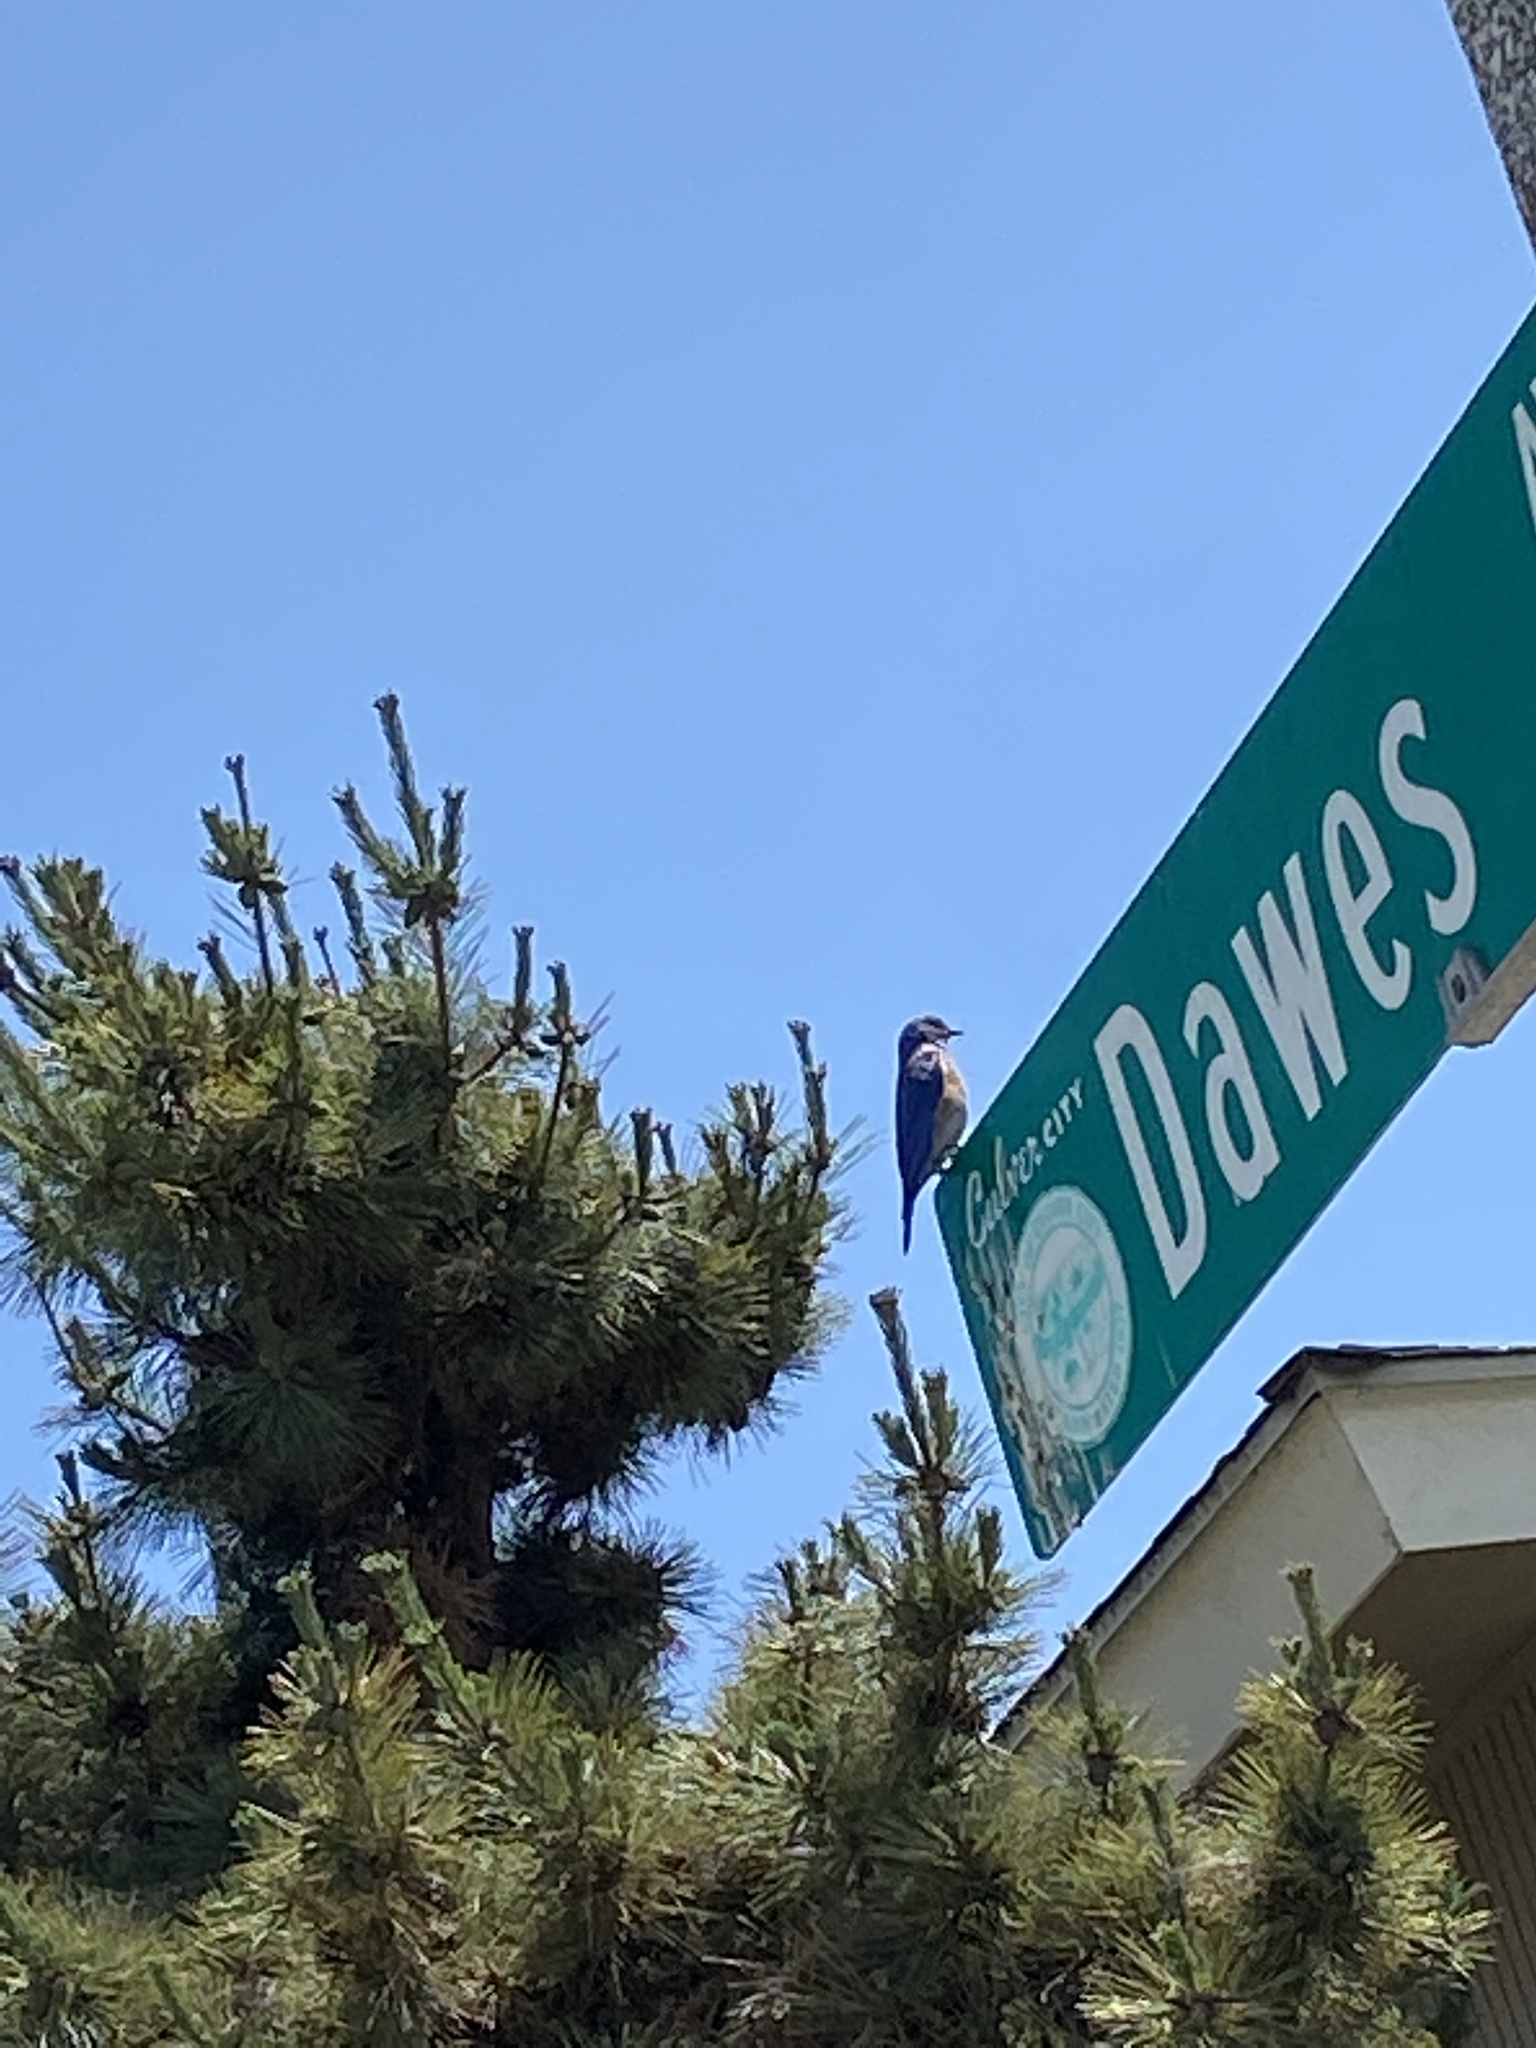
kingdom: Animalia
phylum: Chordata
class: Aves
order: Passeriformes
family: Turdidae
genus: Sialia
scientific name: Sialia mexicana
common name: Western bluebird
